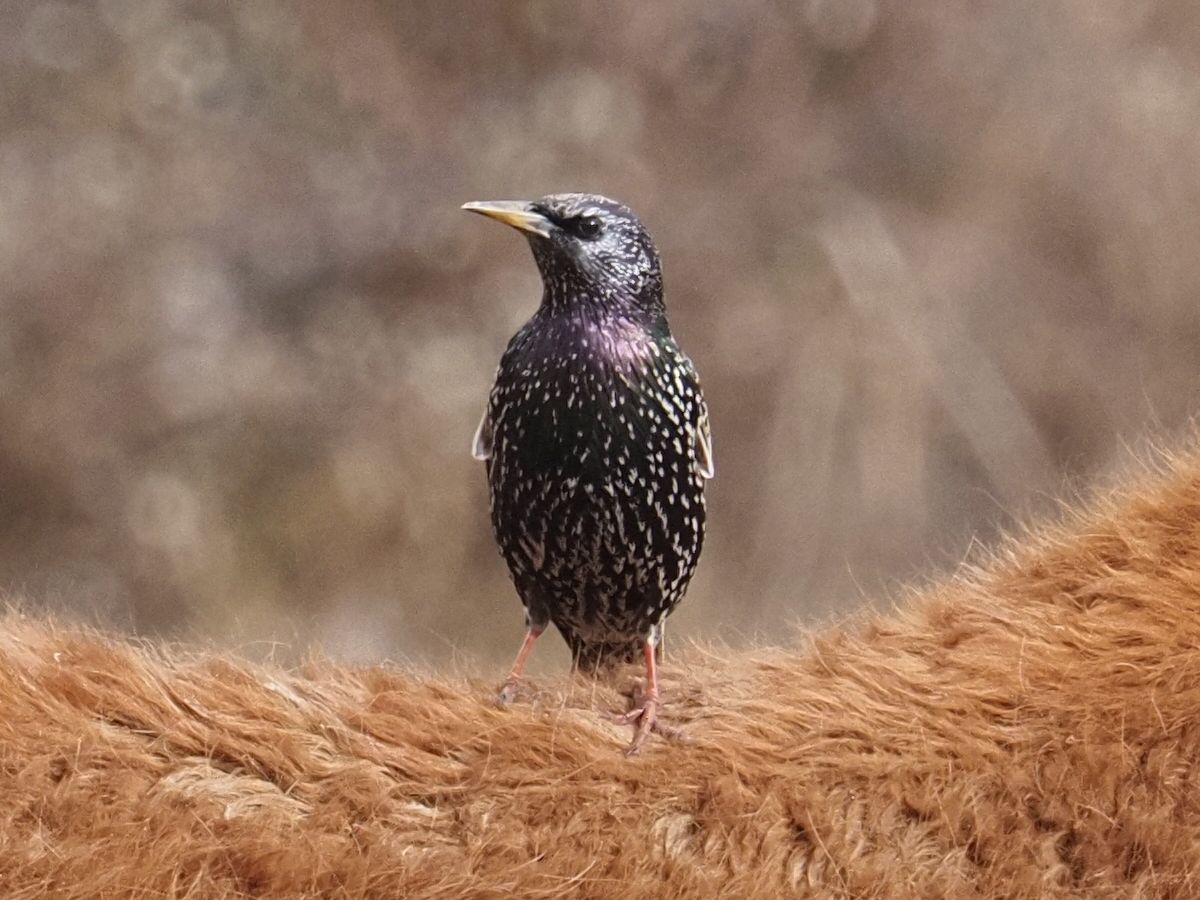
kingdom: Animalia
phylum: Chordata
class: Aves
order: Passeriformes
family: Sturnidae
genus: Sturnus
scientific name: Sturnus vulgaris
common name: Common starling
